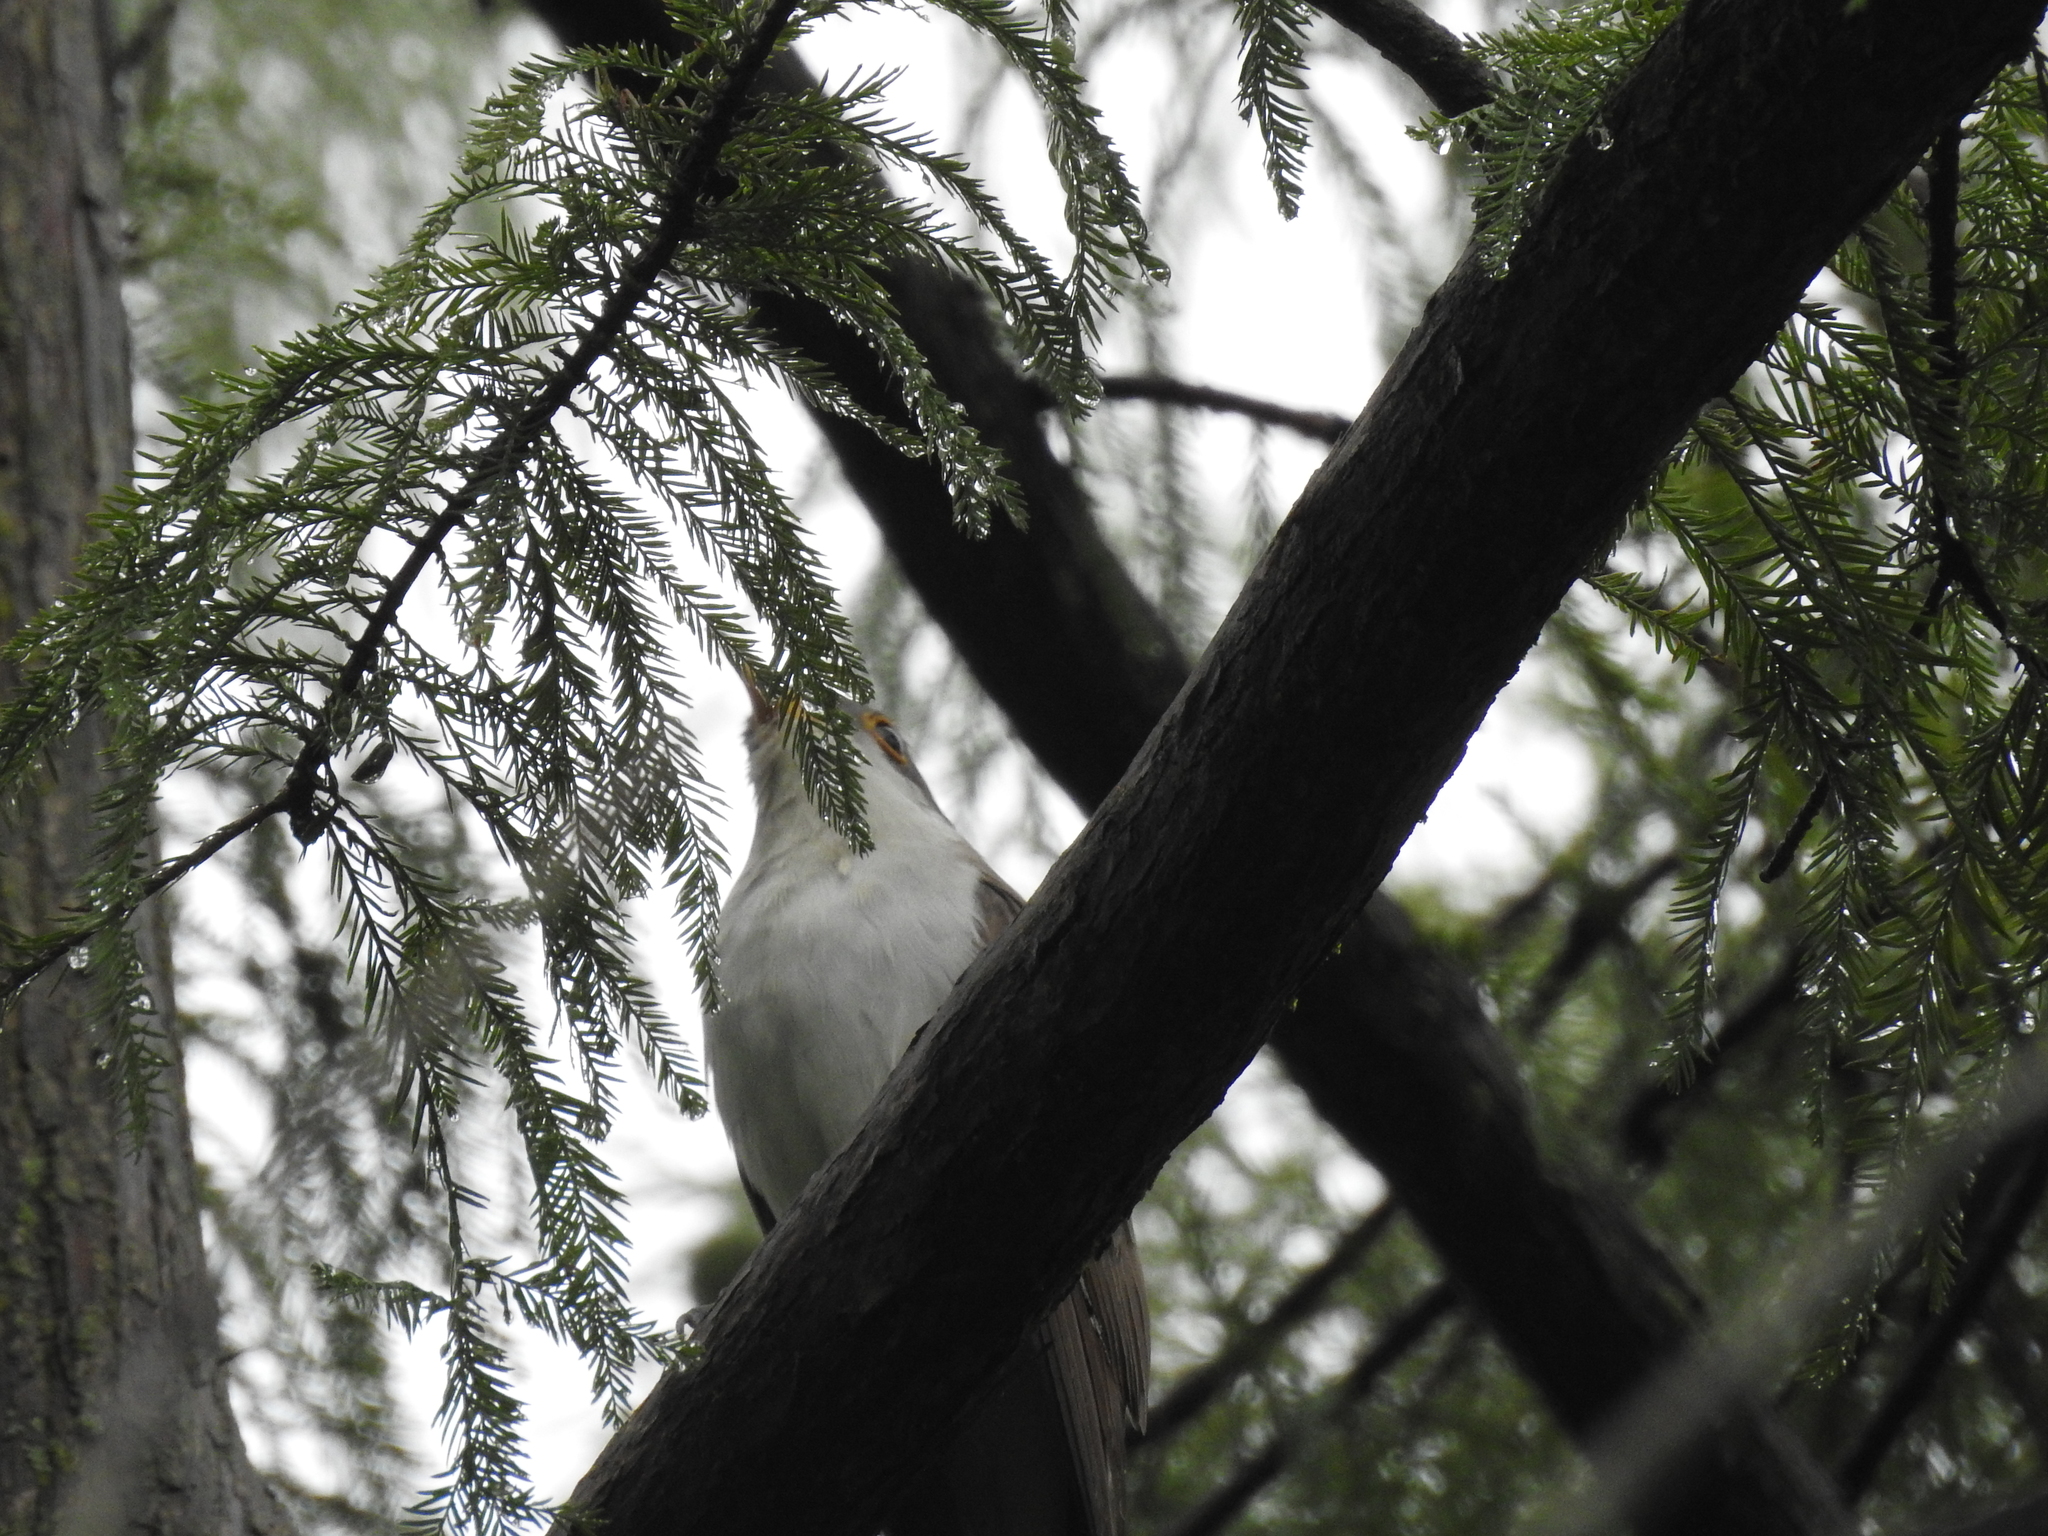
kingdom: Animalia
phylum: Chordata
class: Aves
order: Cuculiformes
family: Cuculidae
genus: Coccyzus
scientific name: Coccyzus americanus
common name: Yellow-billed cuckoo
